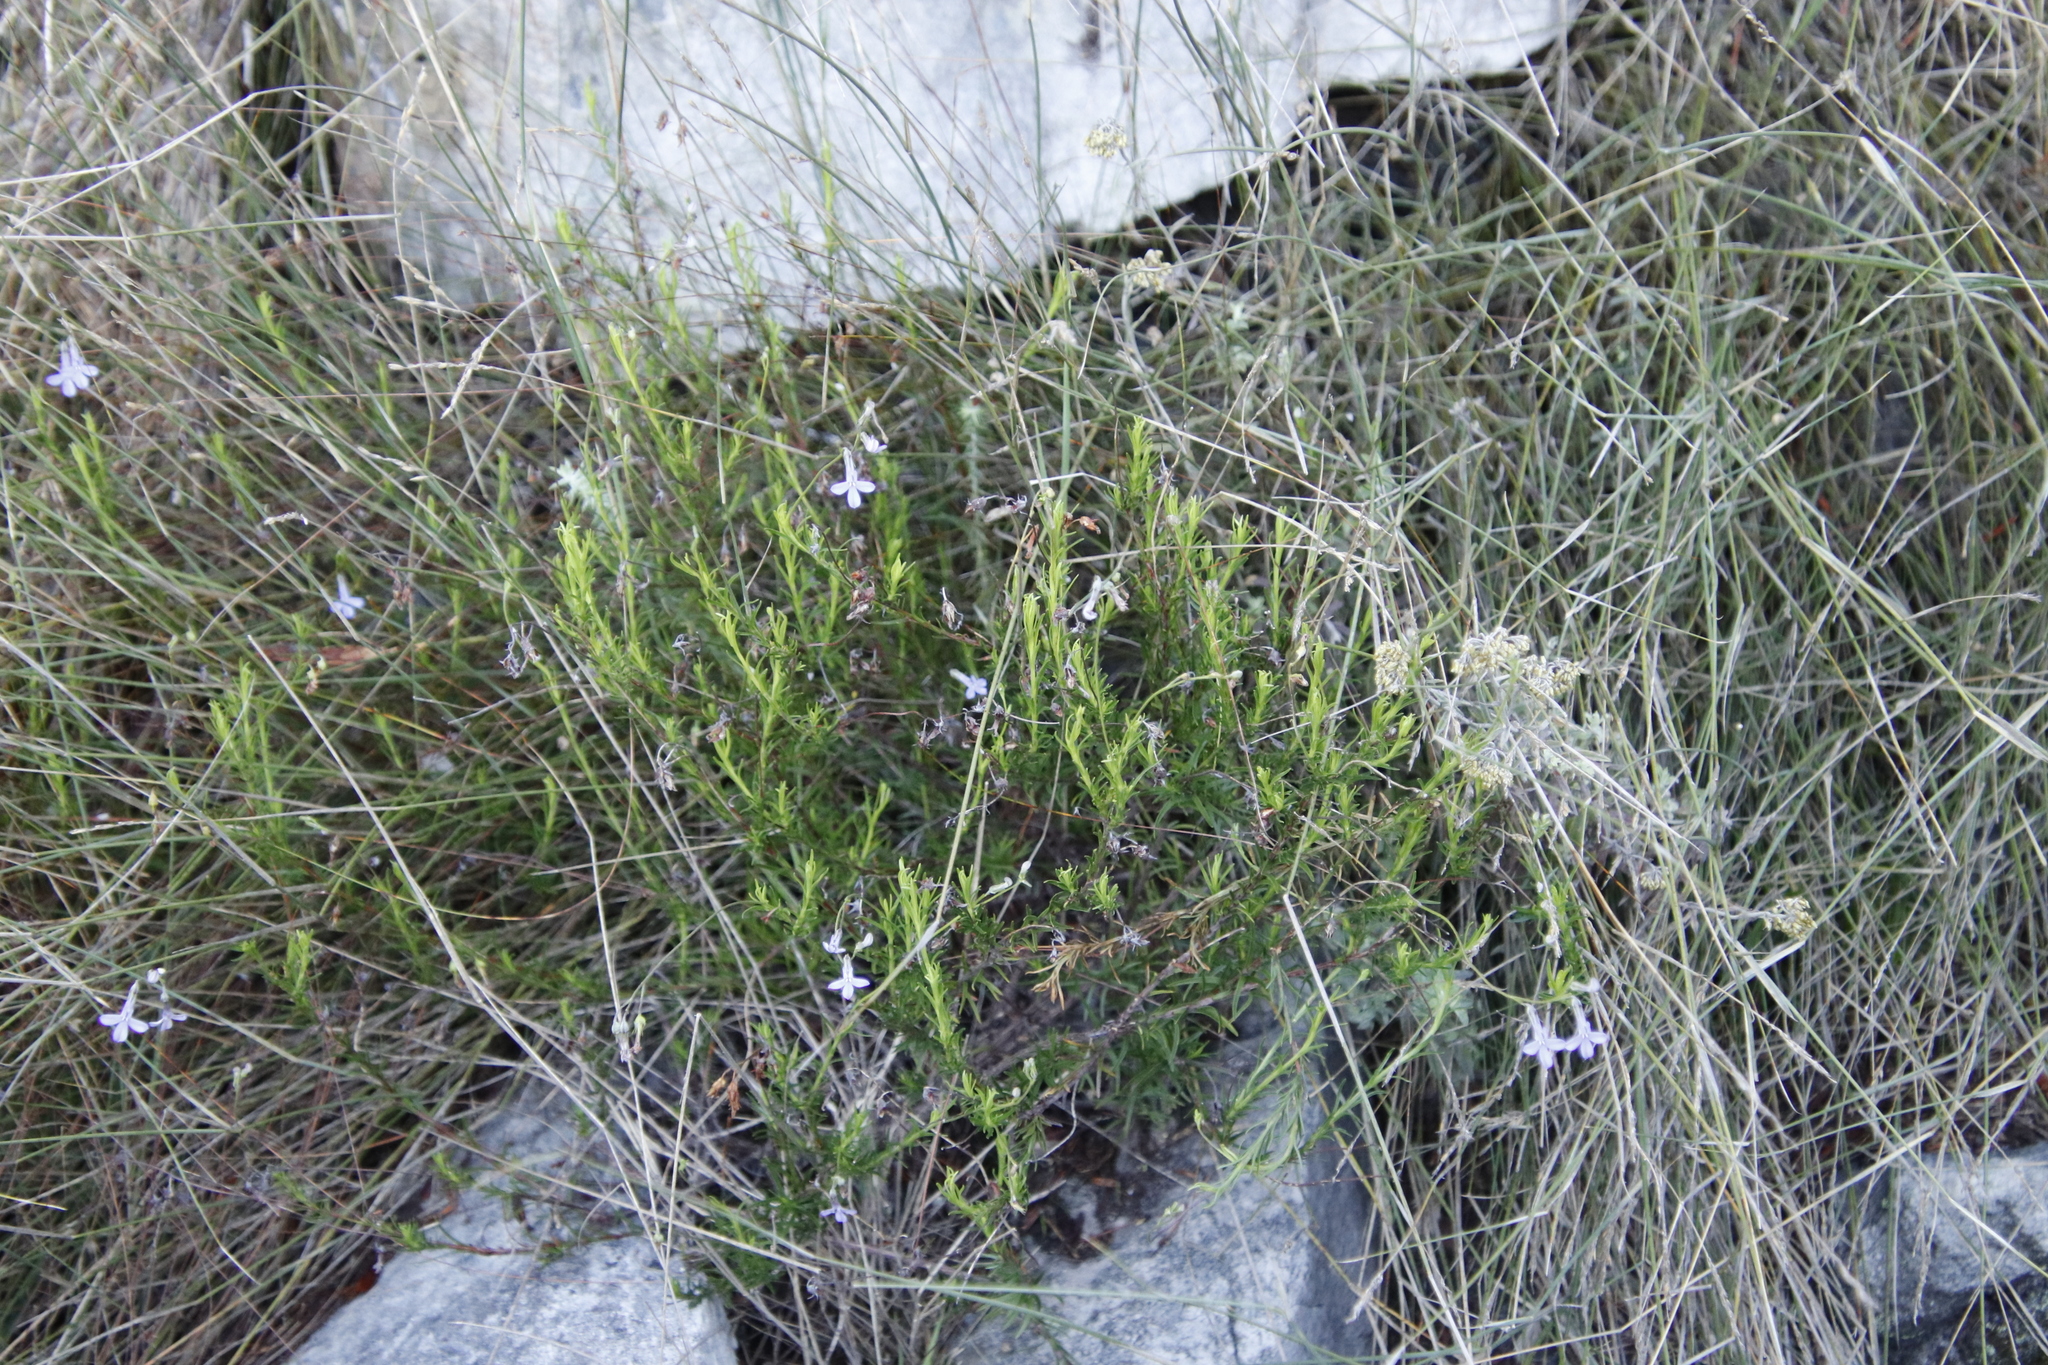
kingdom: Plantae
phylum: Tracheophyta
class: Magnoliopsida
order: Asterales
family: Campanulaceae
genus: Lobelia
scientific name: Lobelia pinifolia
